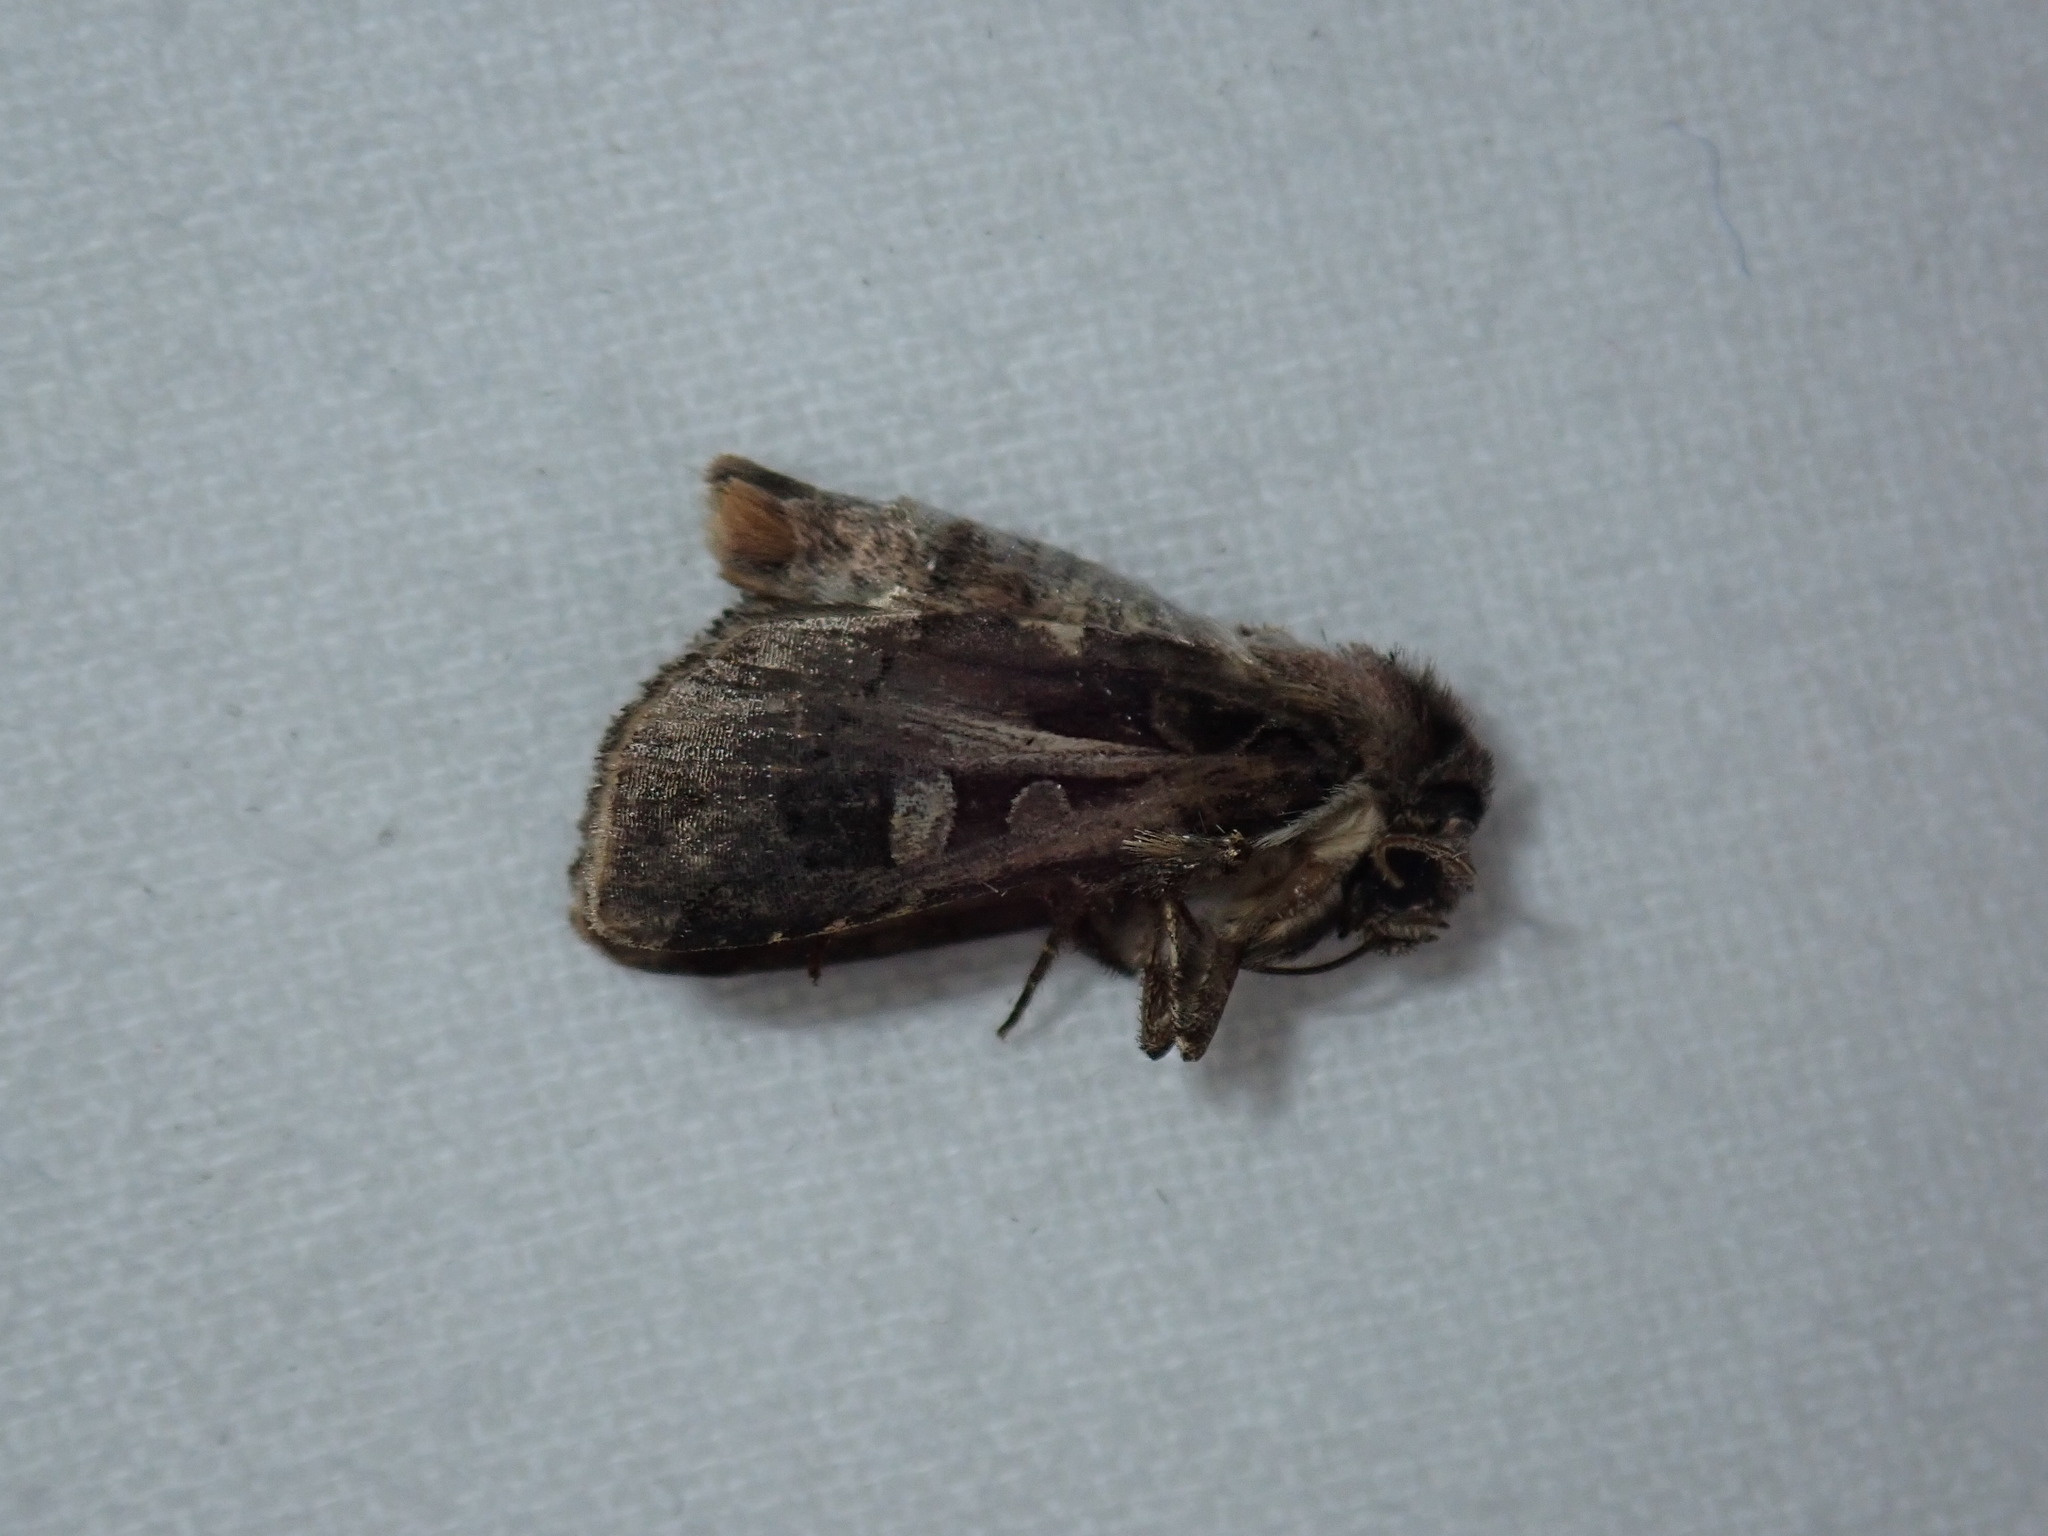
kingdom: Animalia
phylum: Arthropoda
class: Insecta
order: Lepidoptera
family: Noctuidae
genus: Feltia
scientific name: Feltia herilis
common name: Master's dart
